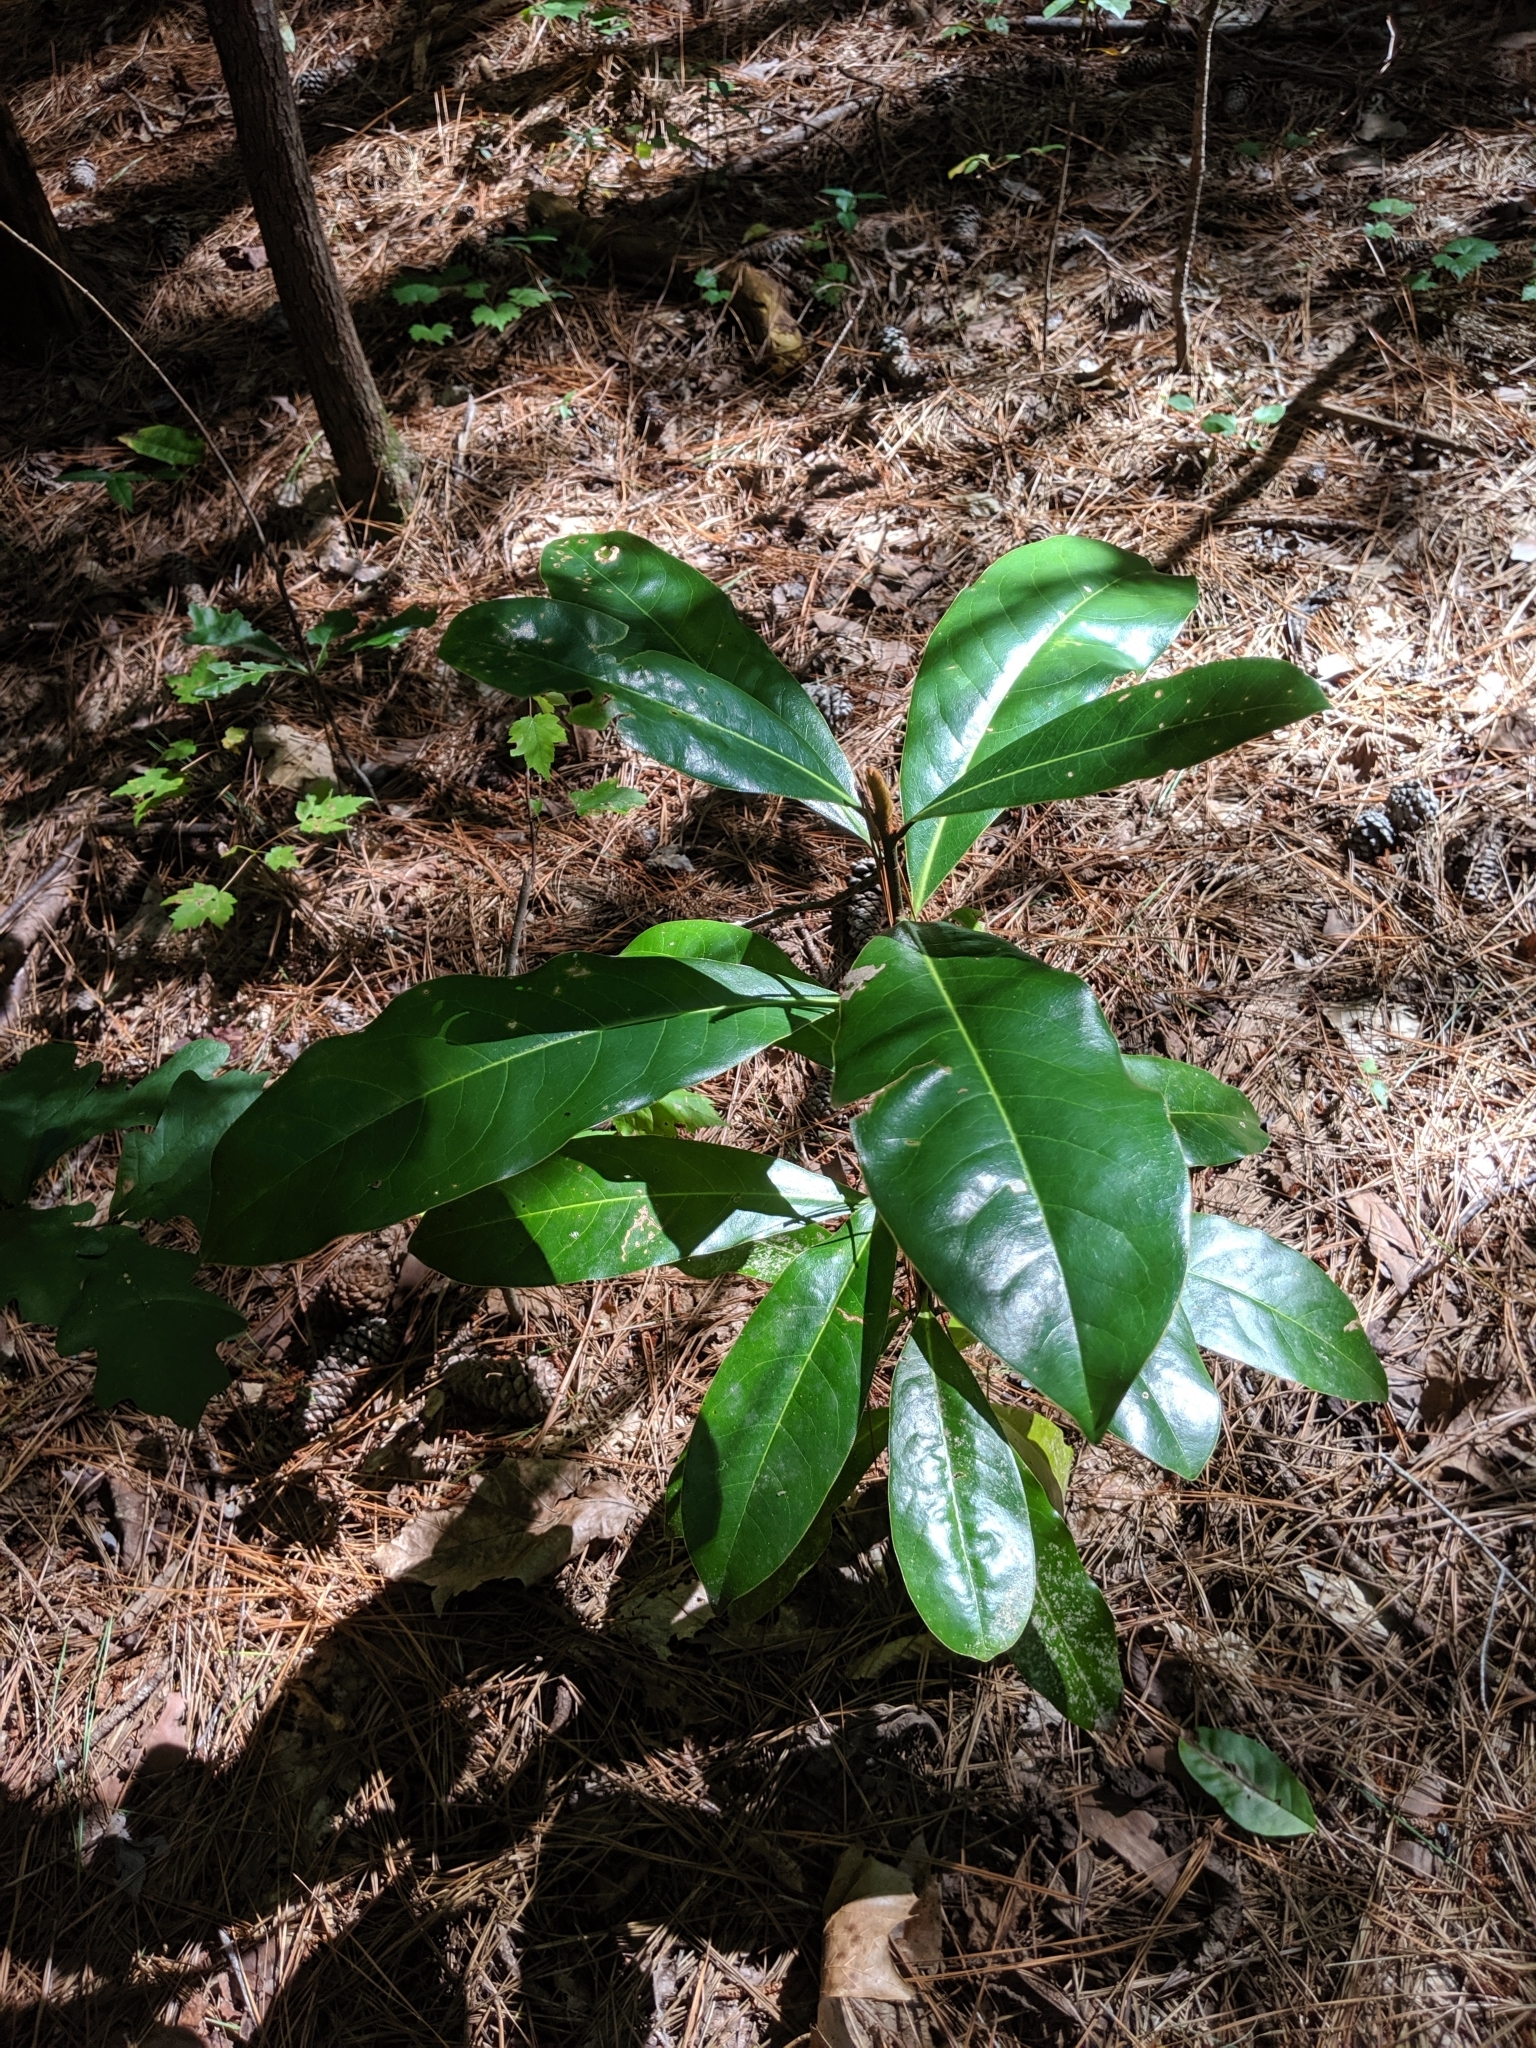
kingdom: Plantae
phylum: Tracheophyta
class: Magnoliopsida
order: Magnoliales
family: Magnoliaceae
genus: Magnolia
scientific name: Magnolia grandiflora
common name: Southern magnolia
